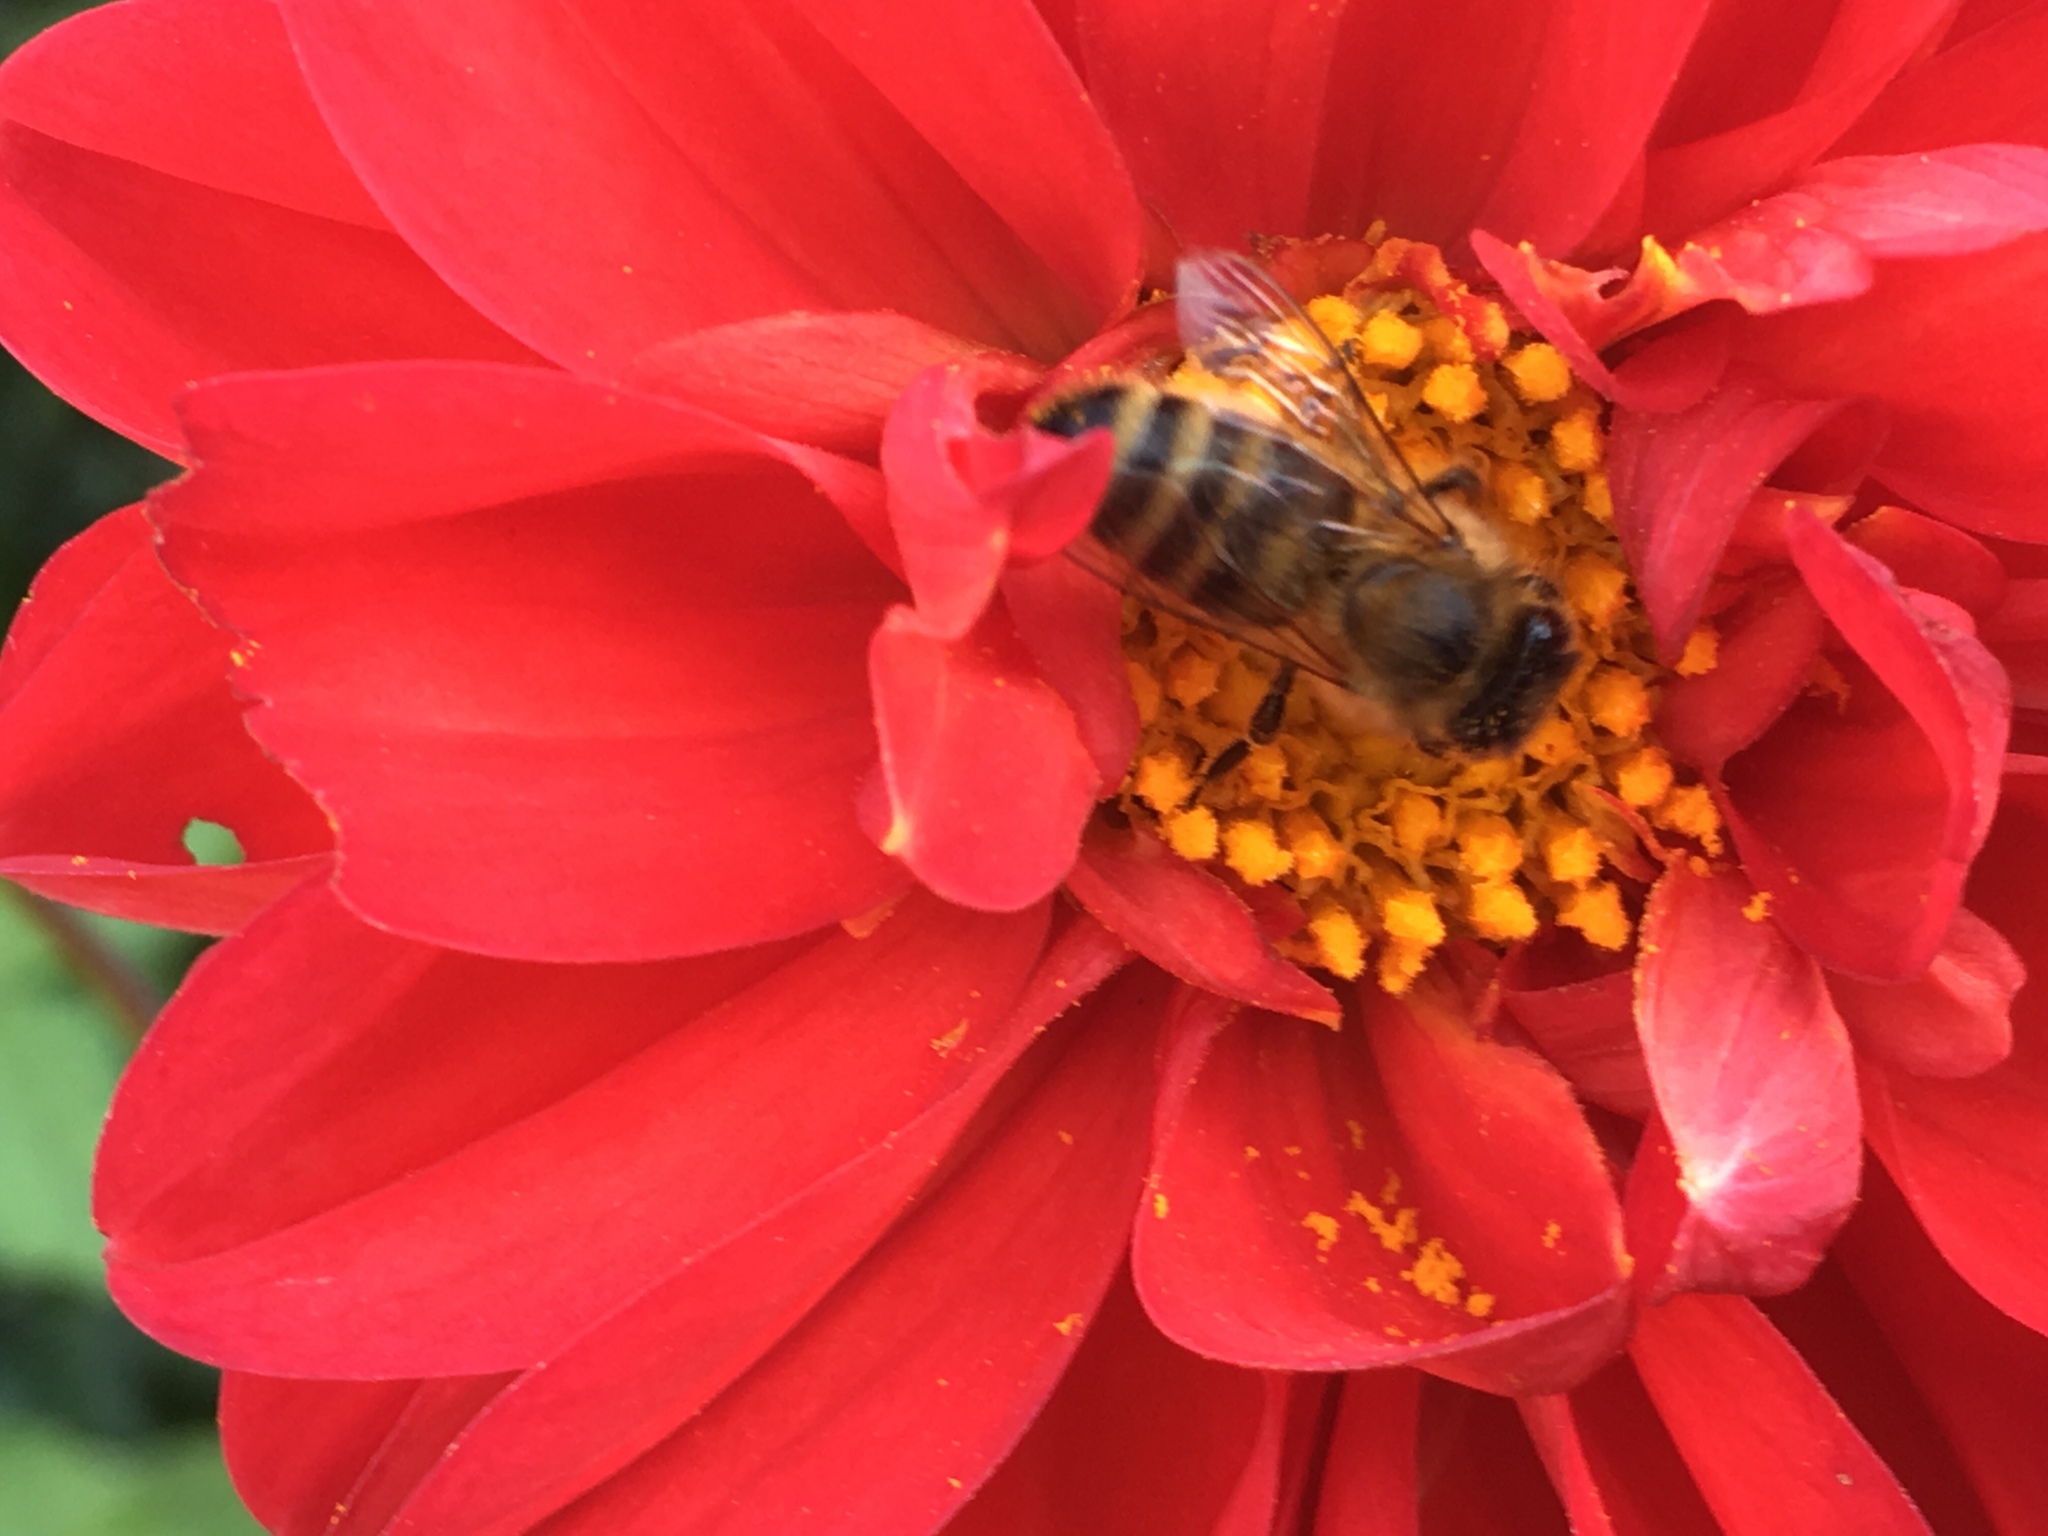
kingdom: Animalia
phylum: Arthropoda
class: Insecta
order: Hymenoptera
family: Apidae
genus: Apis
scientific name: Apis mellifera
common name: Honey bee
